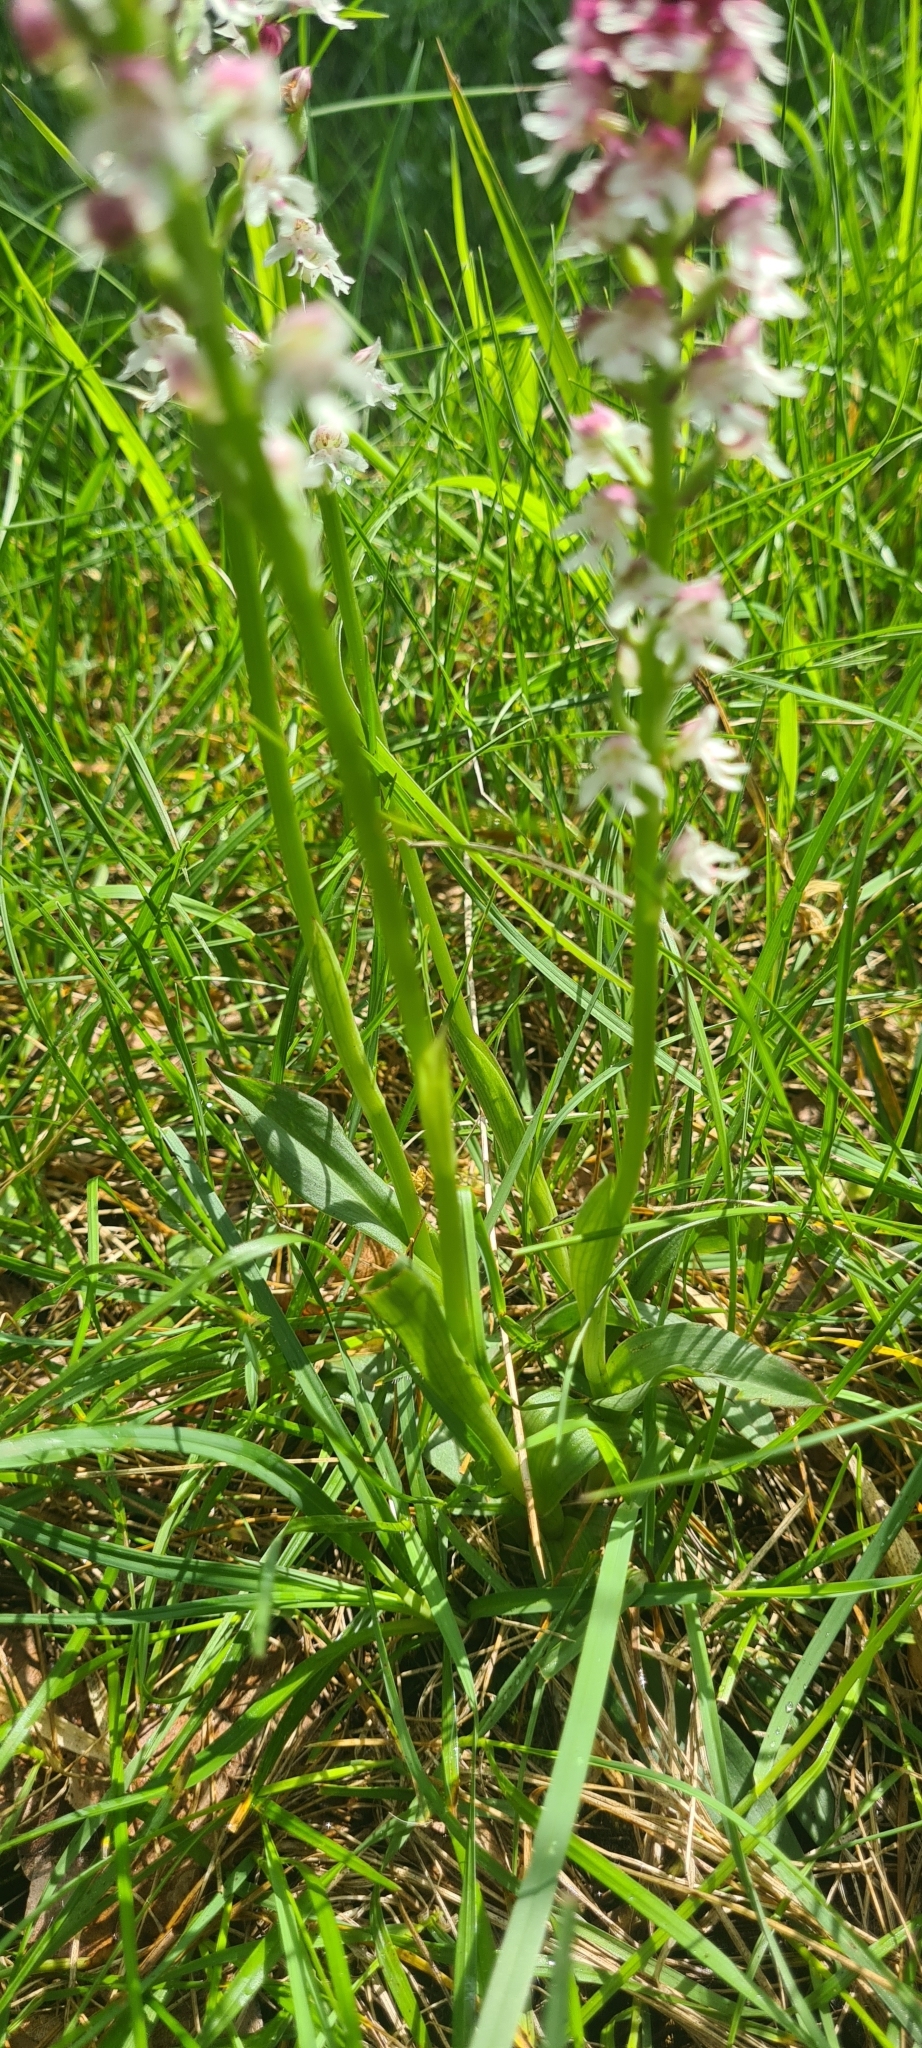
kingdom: Plantae
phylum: Tracheophyta
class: Liliopsida
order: Asparagales
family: Orchidaceae
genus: Neotinea
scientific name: Neotinea ustulata
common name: Burnt orchid
